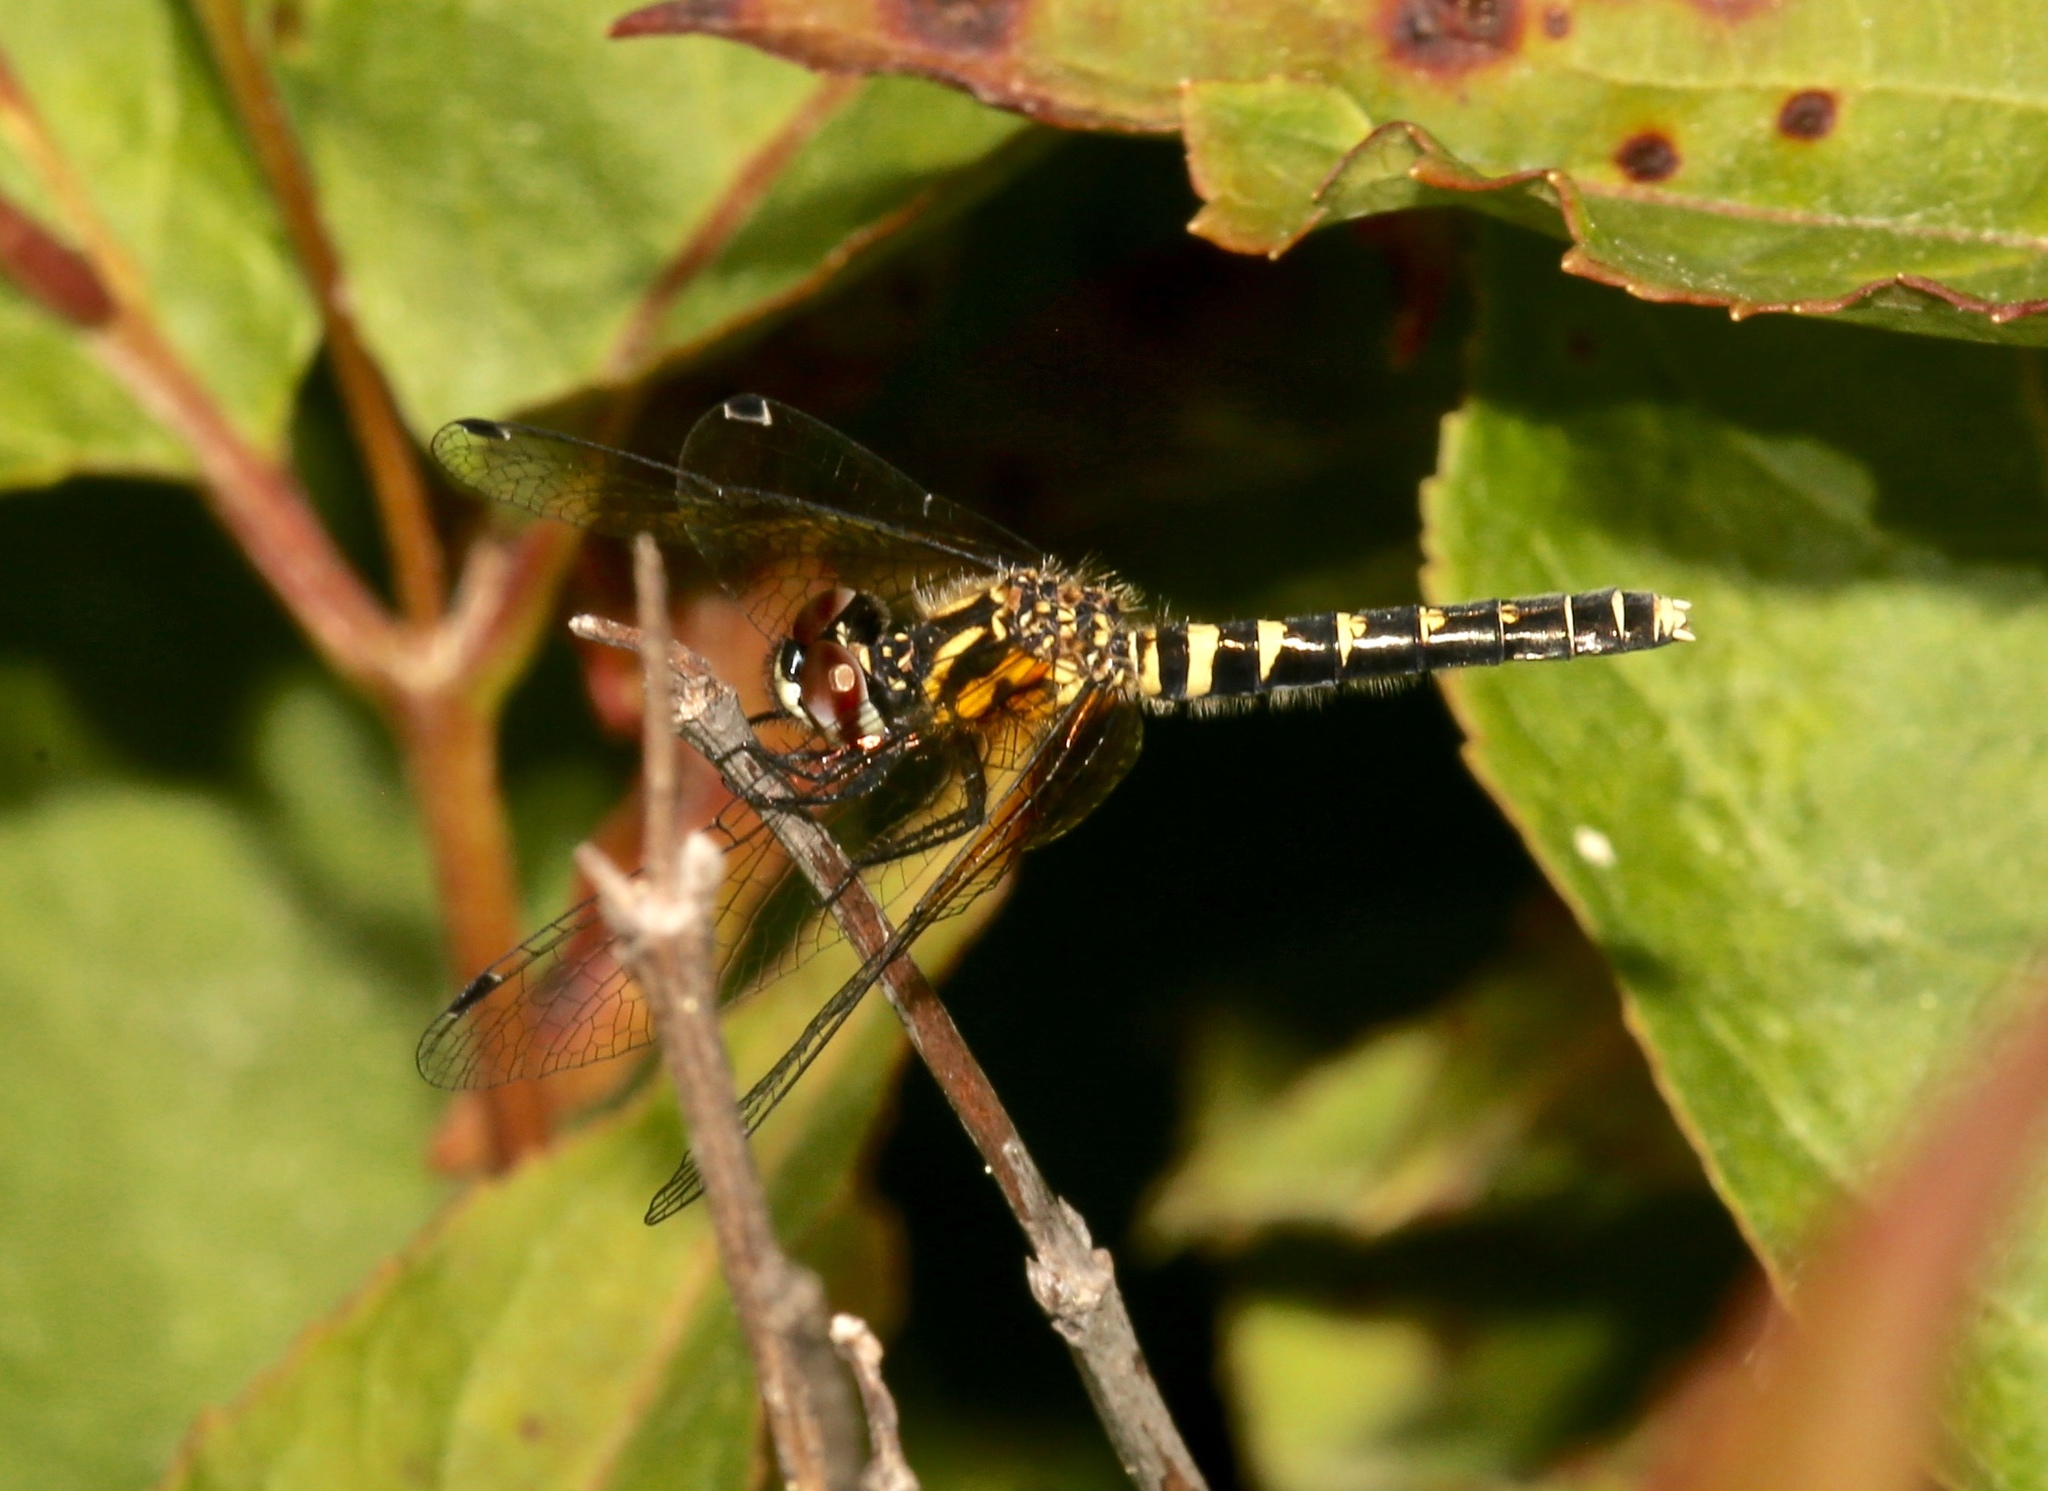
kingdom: Animalia
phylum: Arthropoda
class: Insecta
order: Odonata
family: Libellulidae
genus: Nannothemis
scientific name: Nannothemis bella
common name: Elfin skimmer
